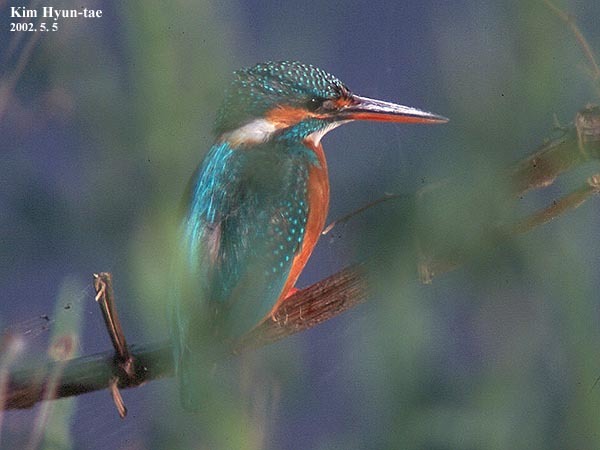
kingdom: Animalia
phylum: Chordata
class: Aves
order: Coraciiformes
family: Alcedinidae
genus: Alcedo
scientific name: Alcedo atthis
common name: Common kingfisher
